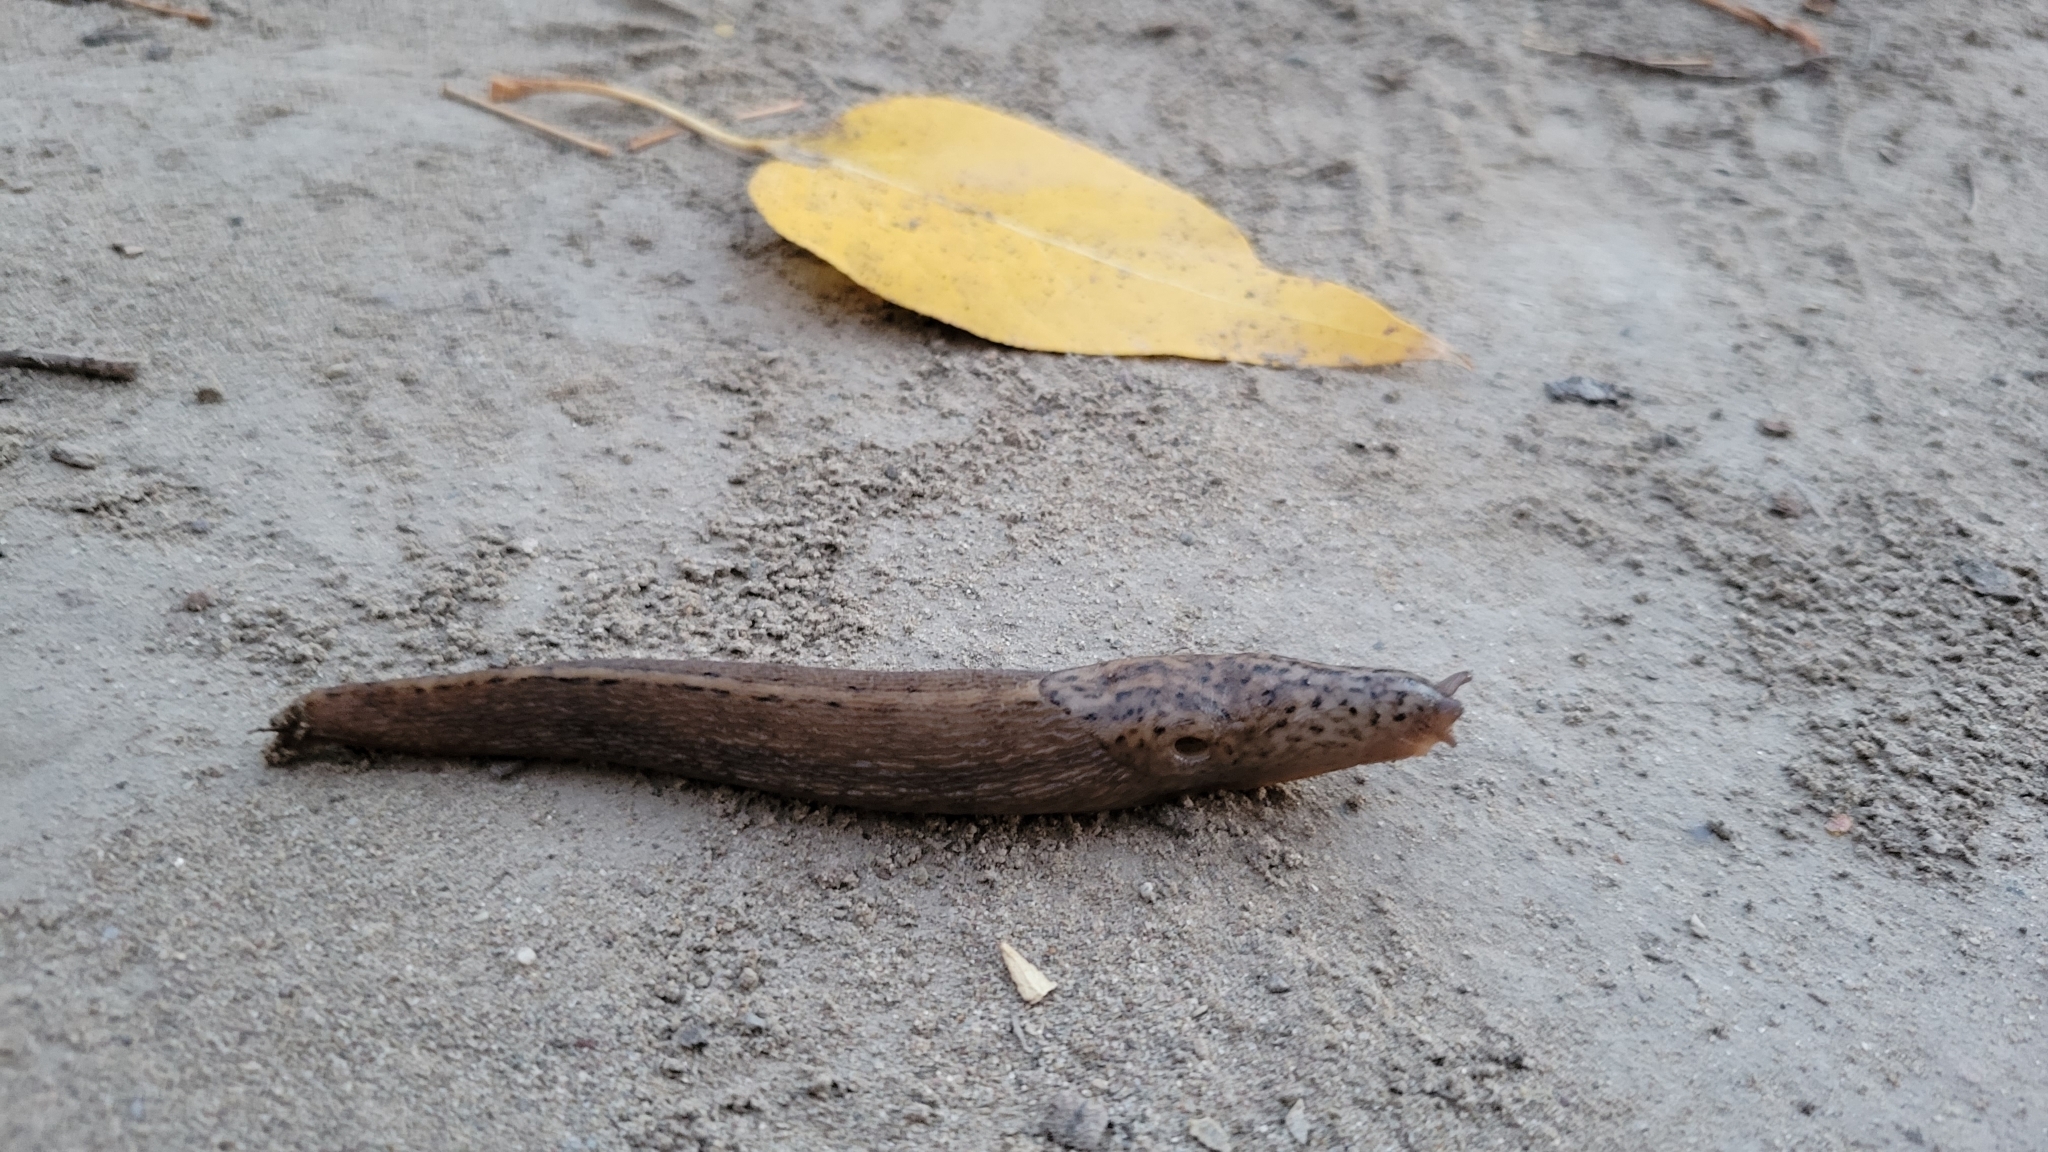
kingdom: Animalia
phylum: Mollusca
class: Gastropoda
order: Stylommatophora
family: Limacidae
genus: Limax
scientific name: Limax maximus
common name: Great grey slug
